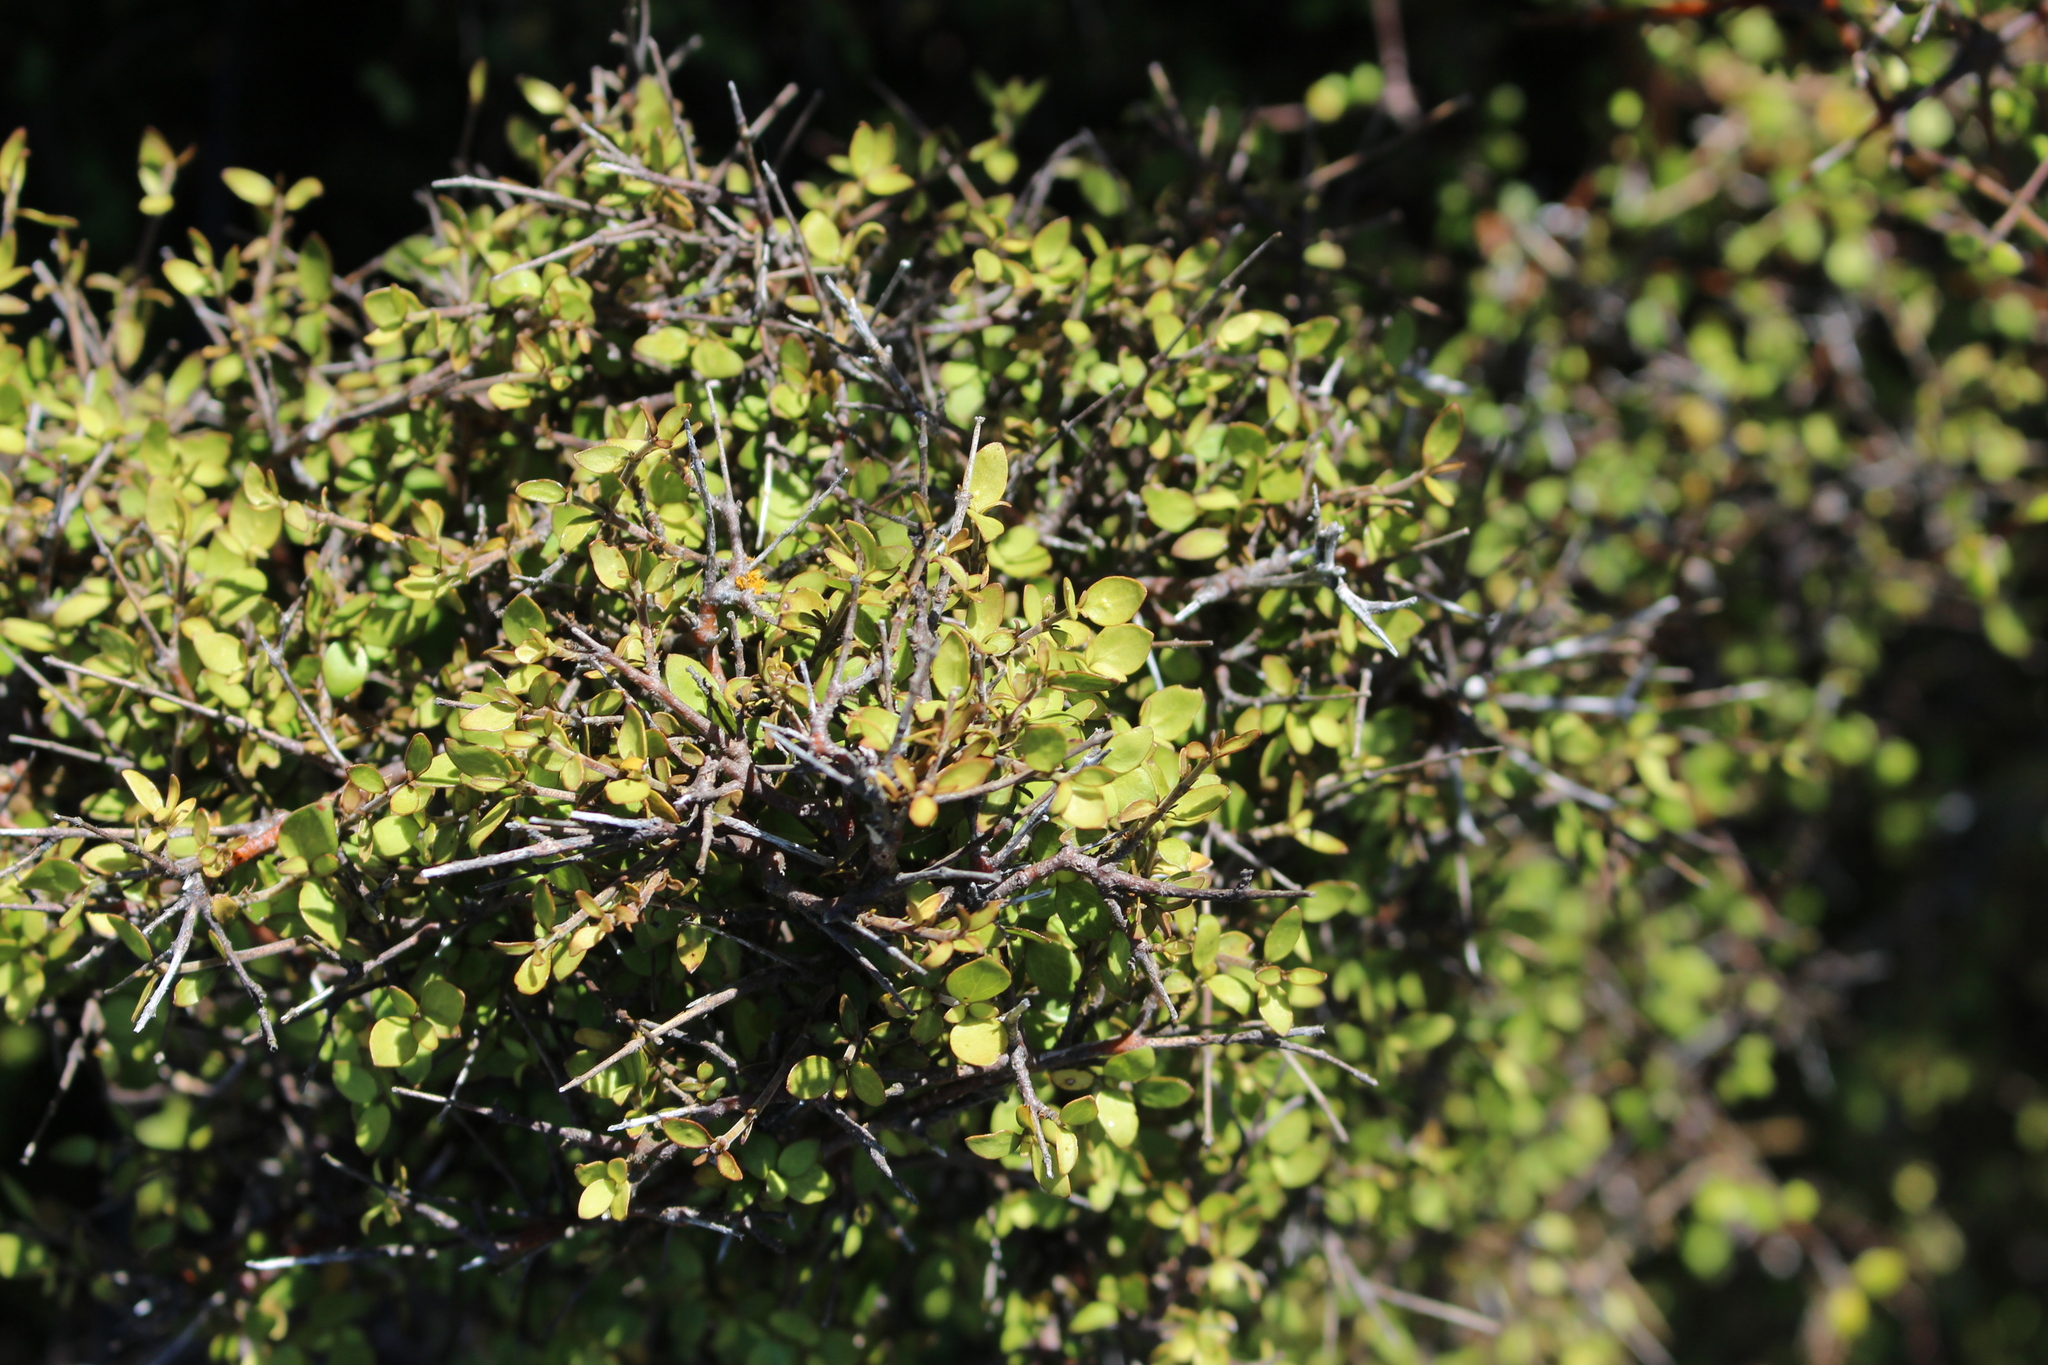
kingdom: Plantae
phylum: Tracheophyta
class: Magnoliopsida
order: Gentianales
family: Rubiaceae
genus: Coprosma
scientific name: Coprosma rhamnoides
